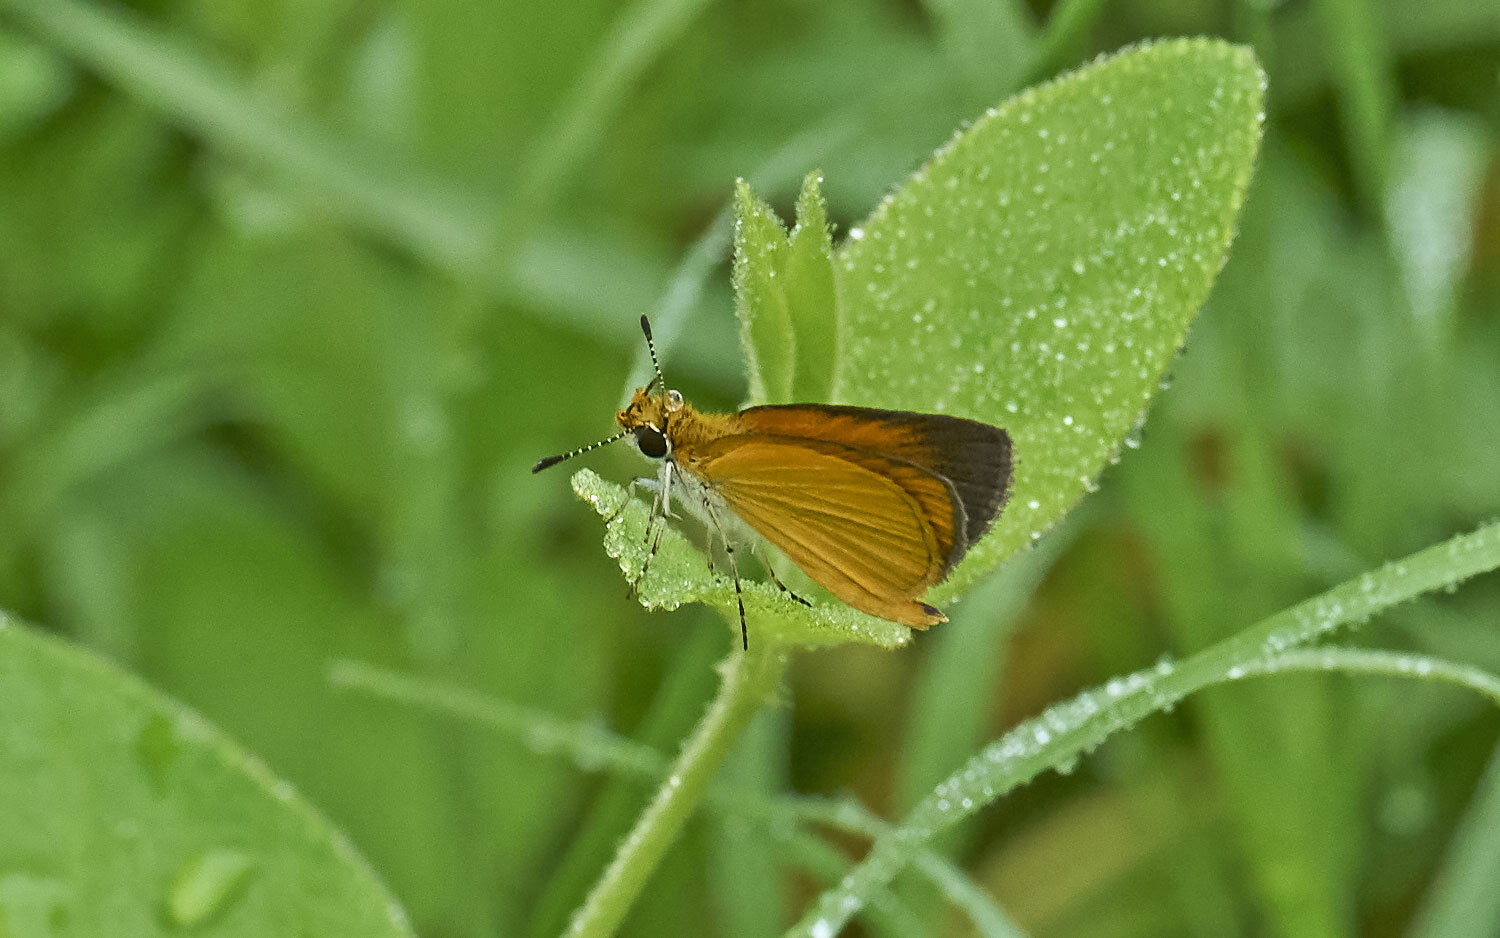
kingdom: Animalia
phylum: Arthropoda
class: Insecta
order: Lepidoptera
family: Hesperiidae
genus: Ancyloxypha
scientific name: Ancyloxypha numitor
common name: Least skipper
